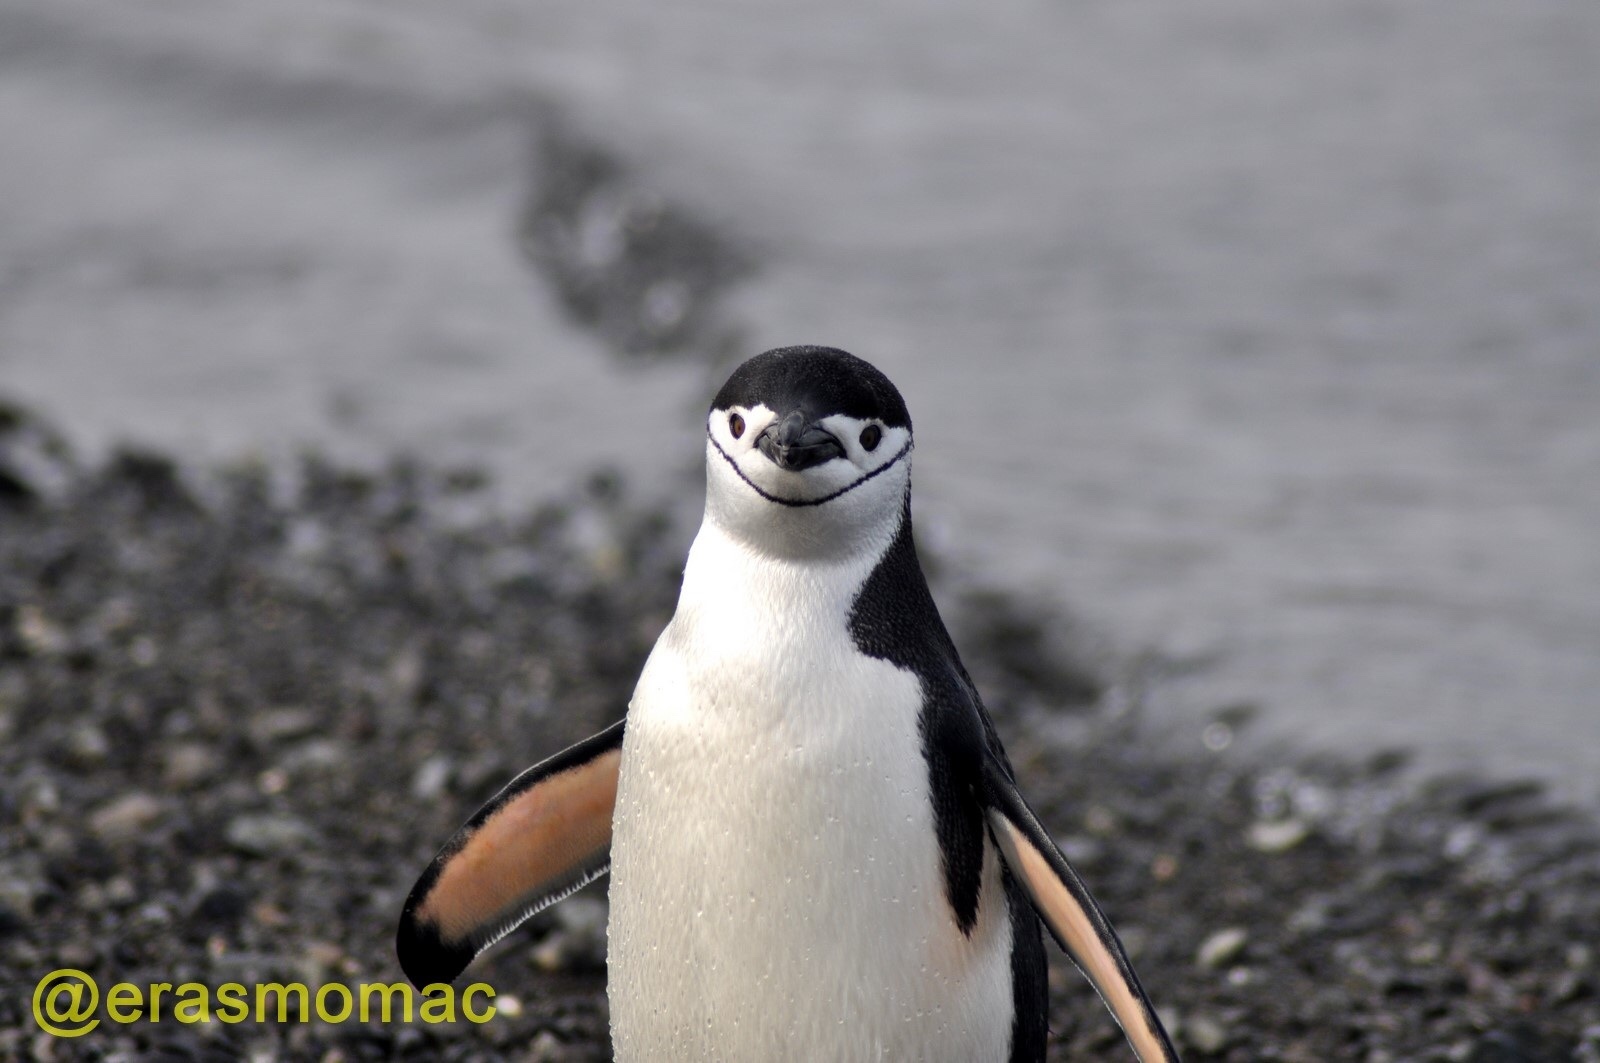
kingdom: Animalia
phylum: Chordata
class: Aves
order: Sphenisciformes
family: Spheniscidae
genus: Pygoscelis
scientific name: Pygoscelis antarcticus
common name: Chinstrap penguin
